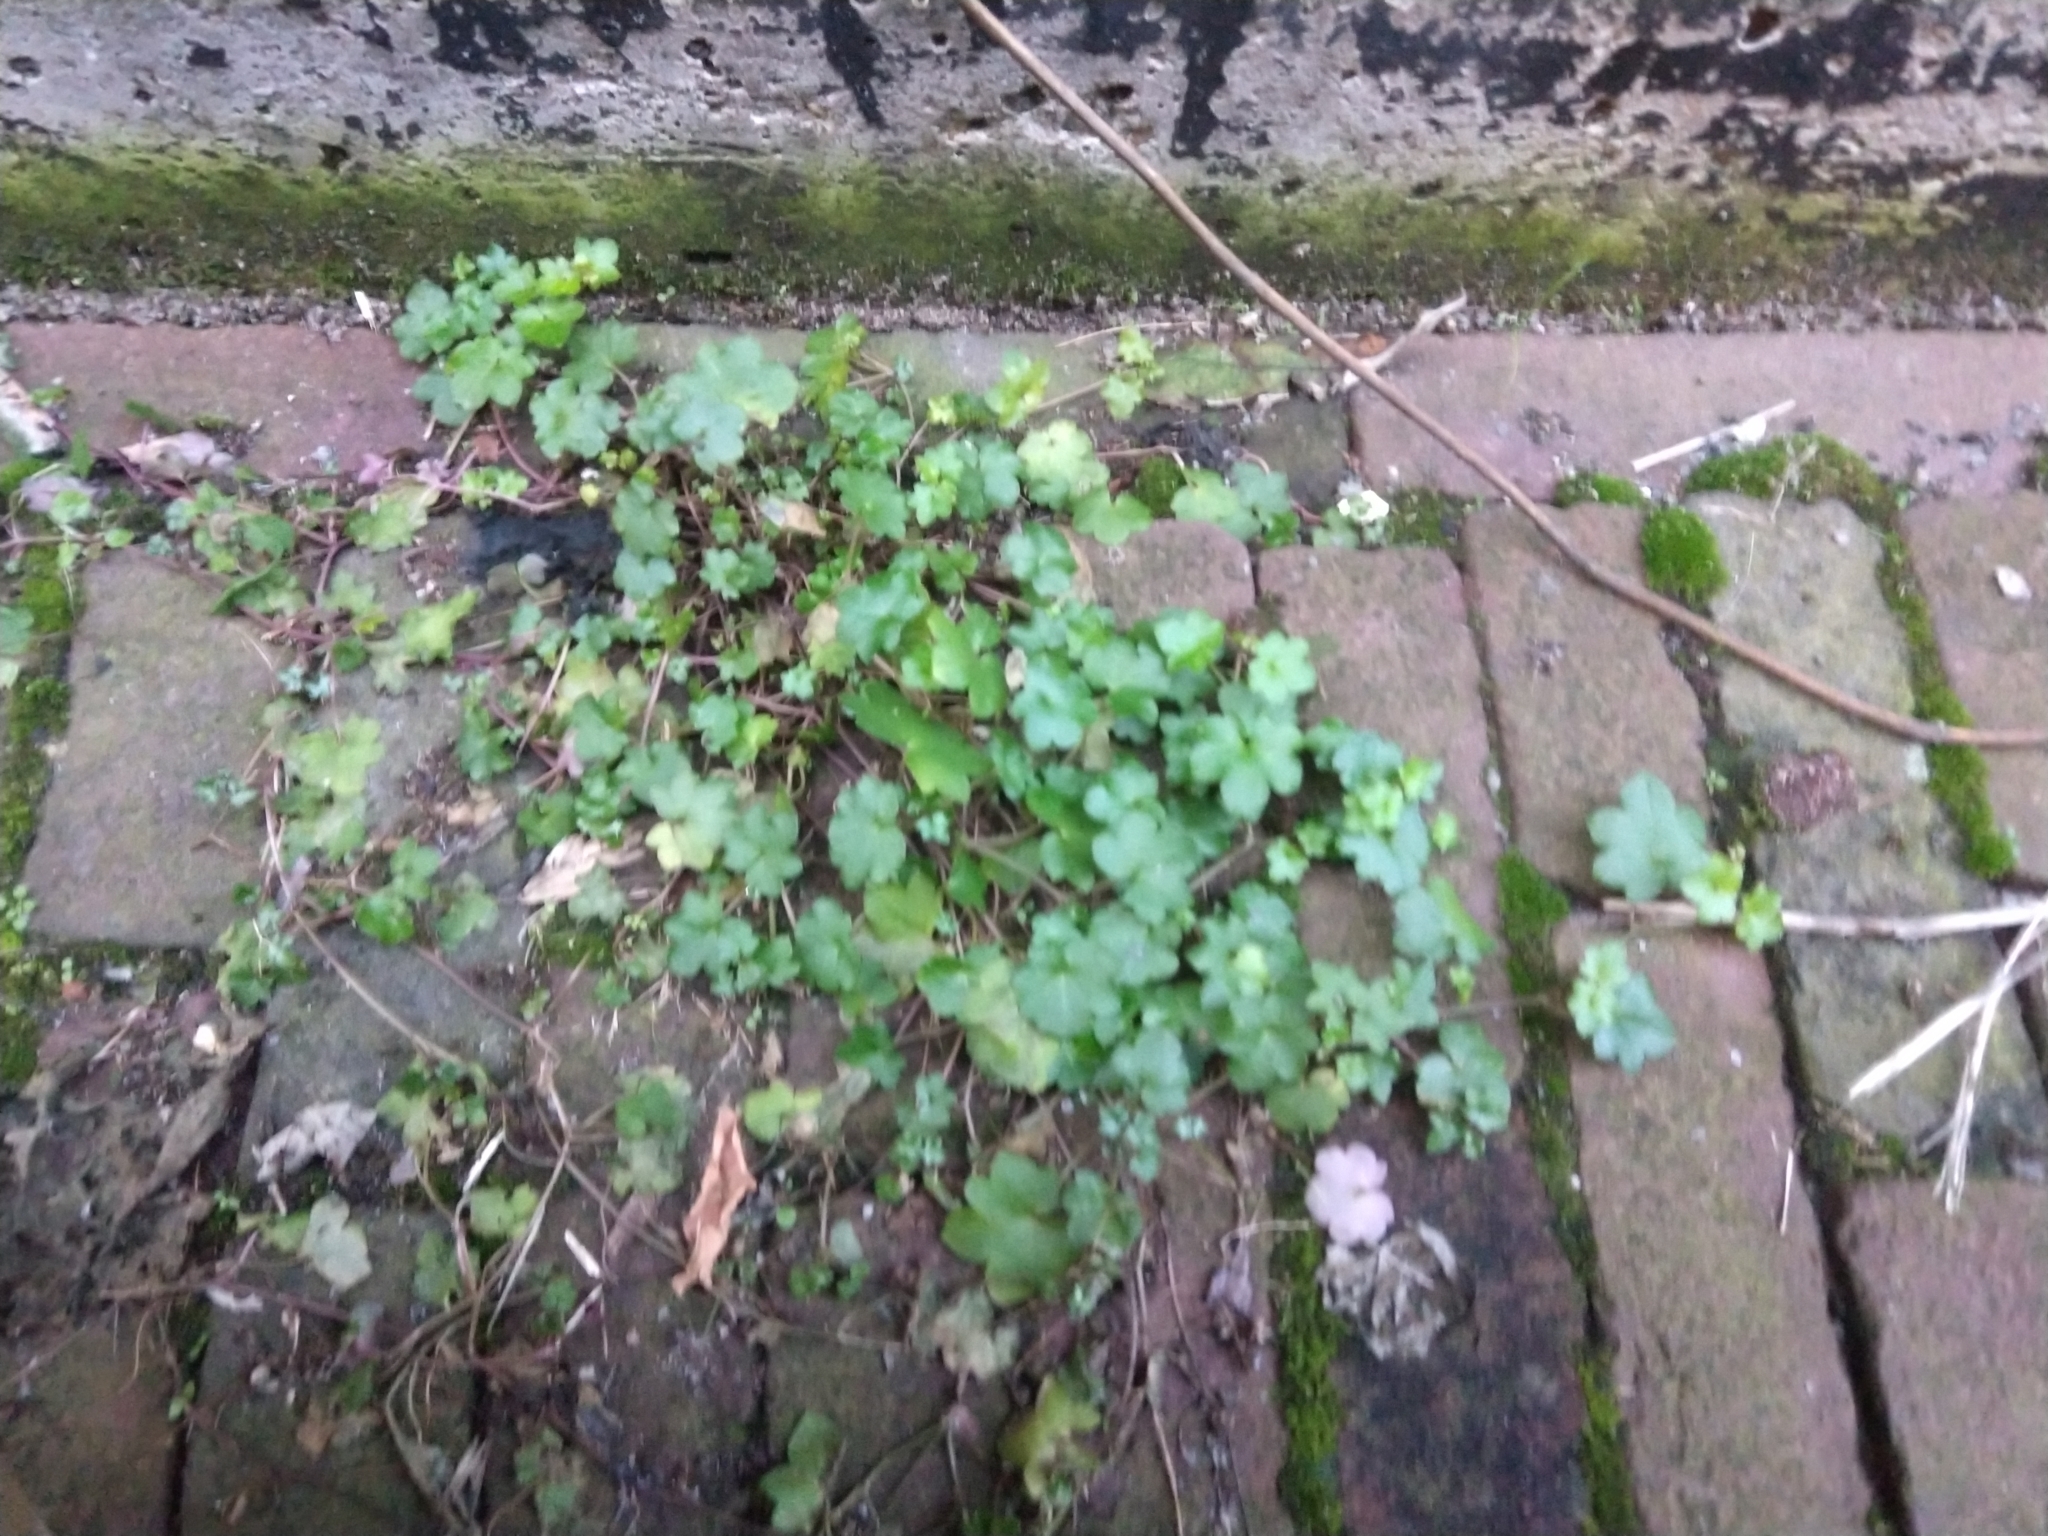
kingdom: Plantae
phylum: Tracheophyta
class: Magnoliopsida
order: Lamiales
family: Plantaginaceae
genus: Cymbalaria
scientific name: Cymbalaria muralis
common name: Ivy-leaved toadflax
